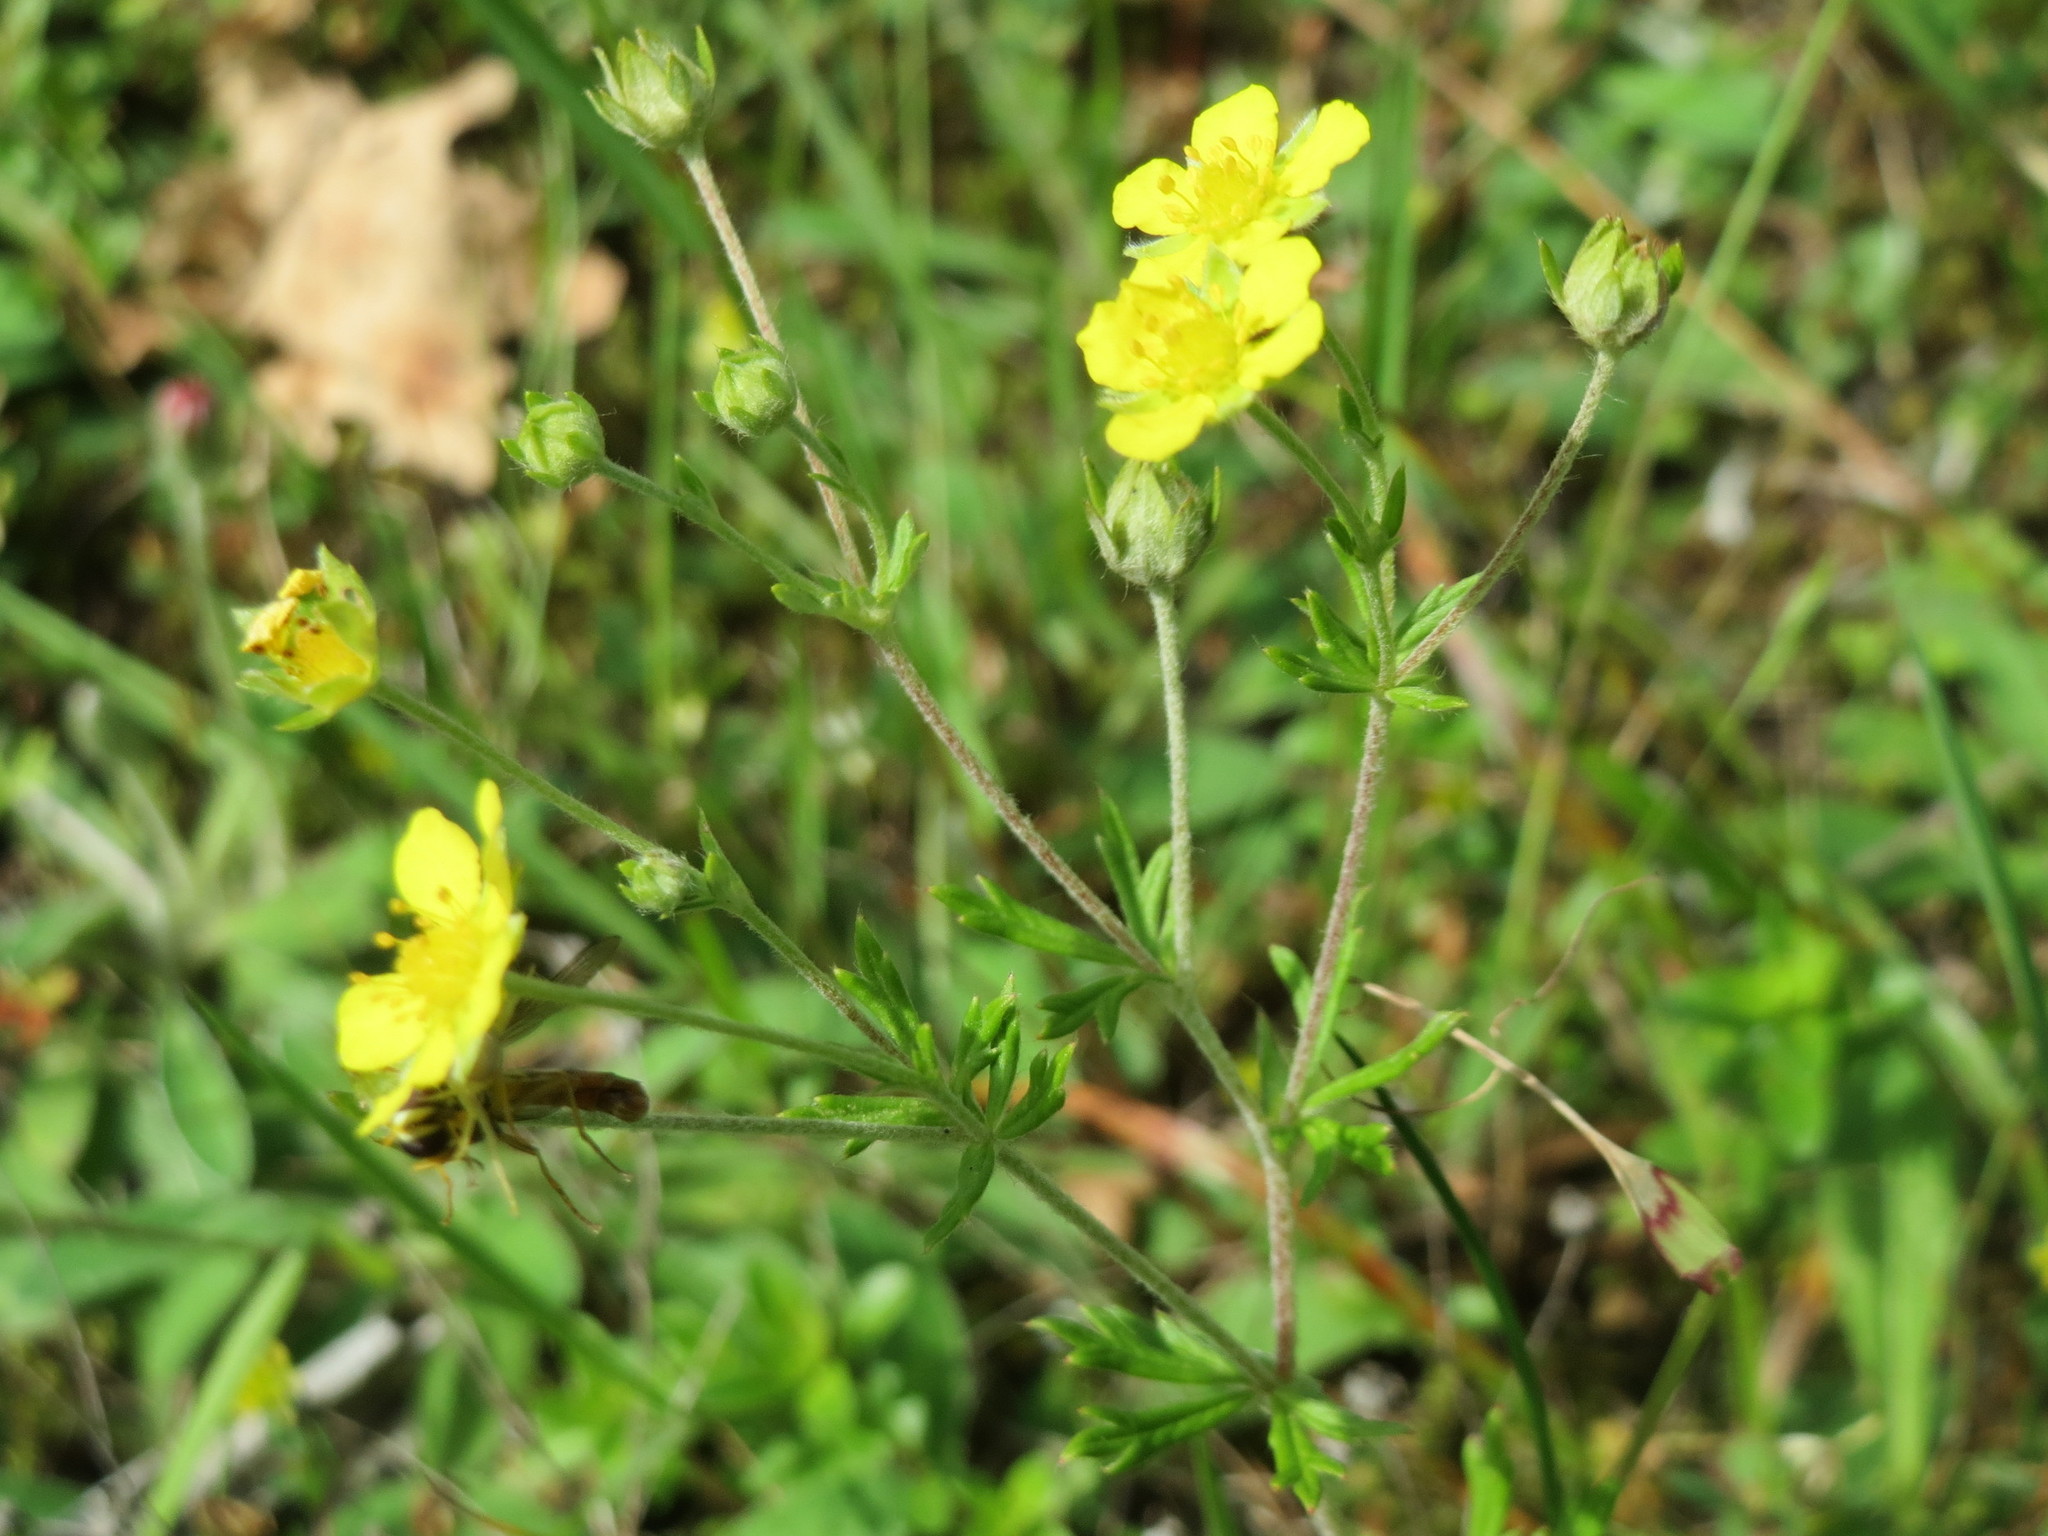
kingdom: Plantae
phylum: Tracheophyta
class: Magnoliopsida
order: Rosales
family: Rosaceae
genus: Potentilla
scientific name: Potentilla argentea
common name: Hoary cinquefoil
